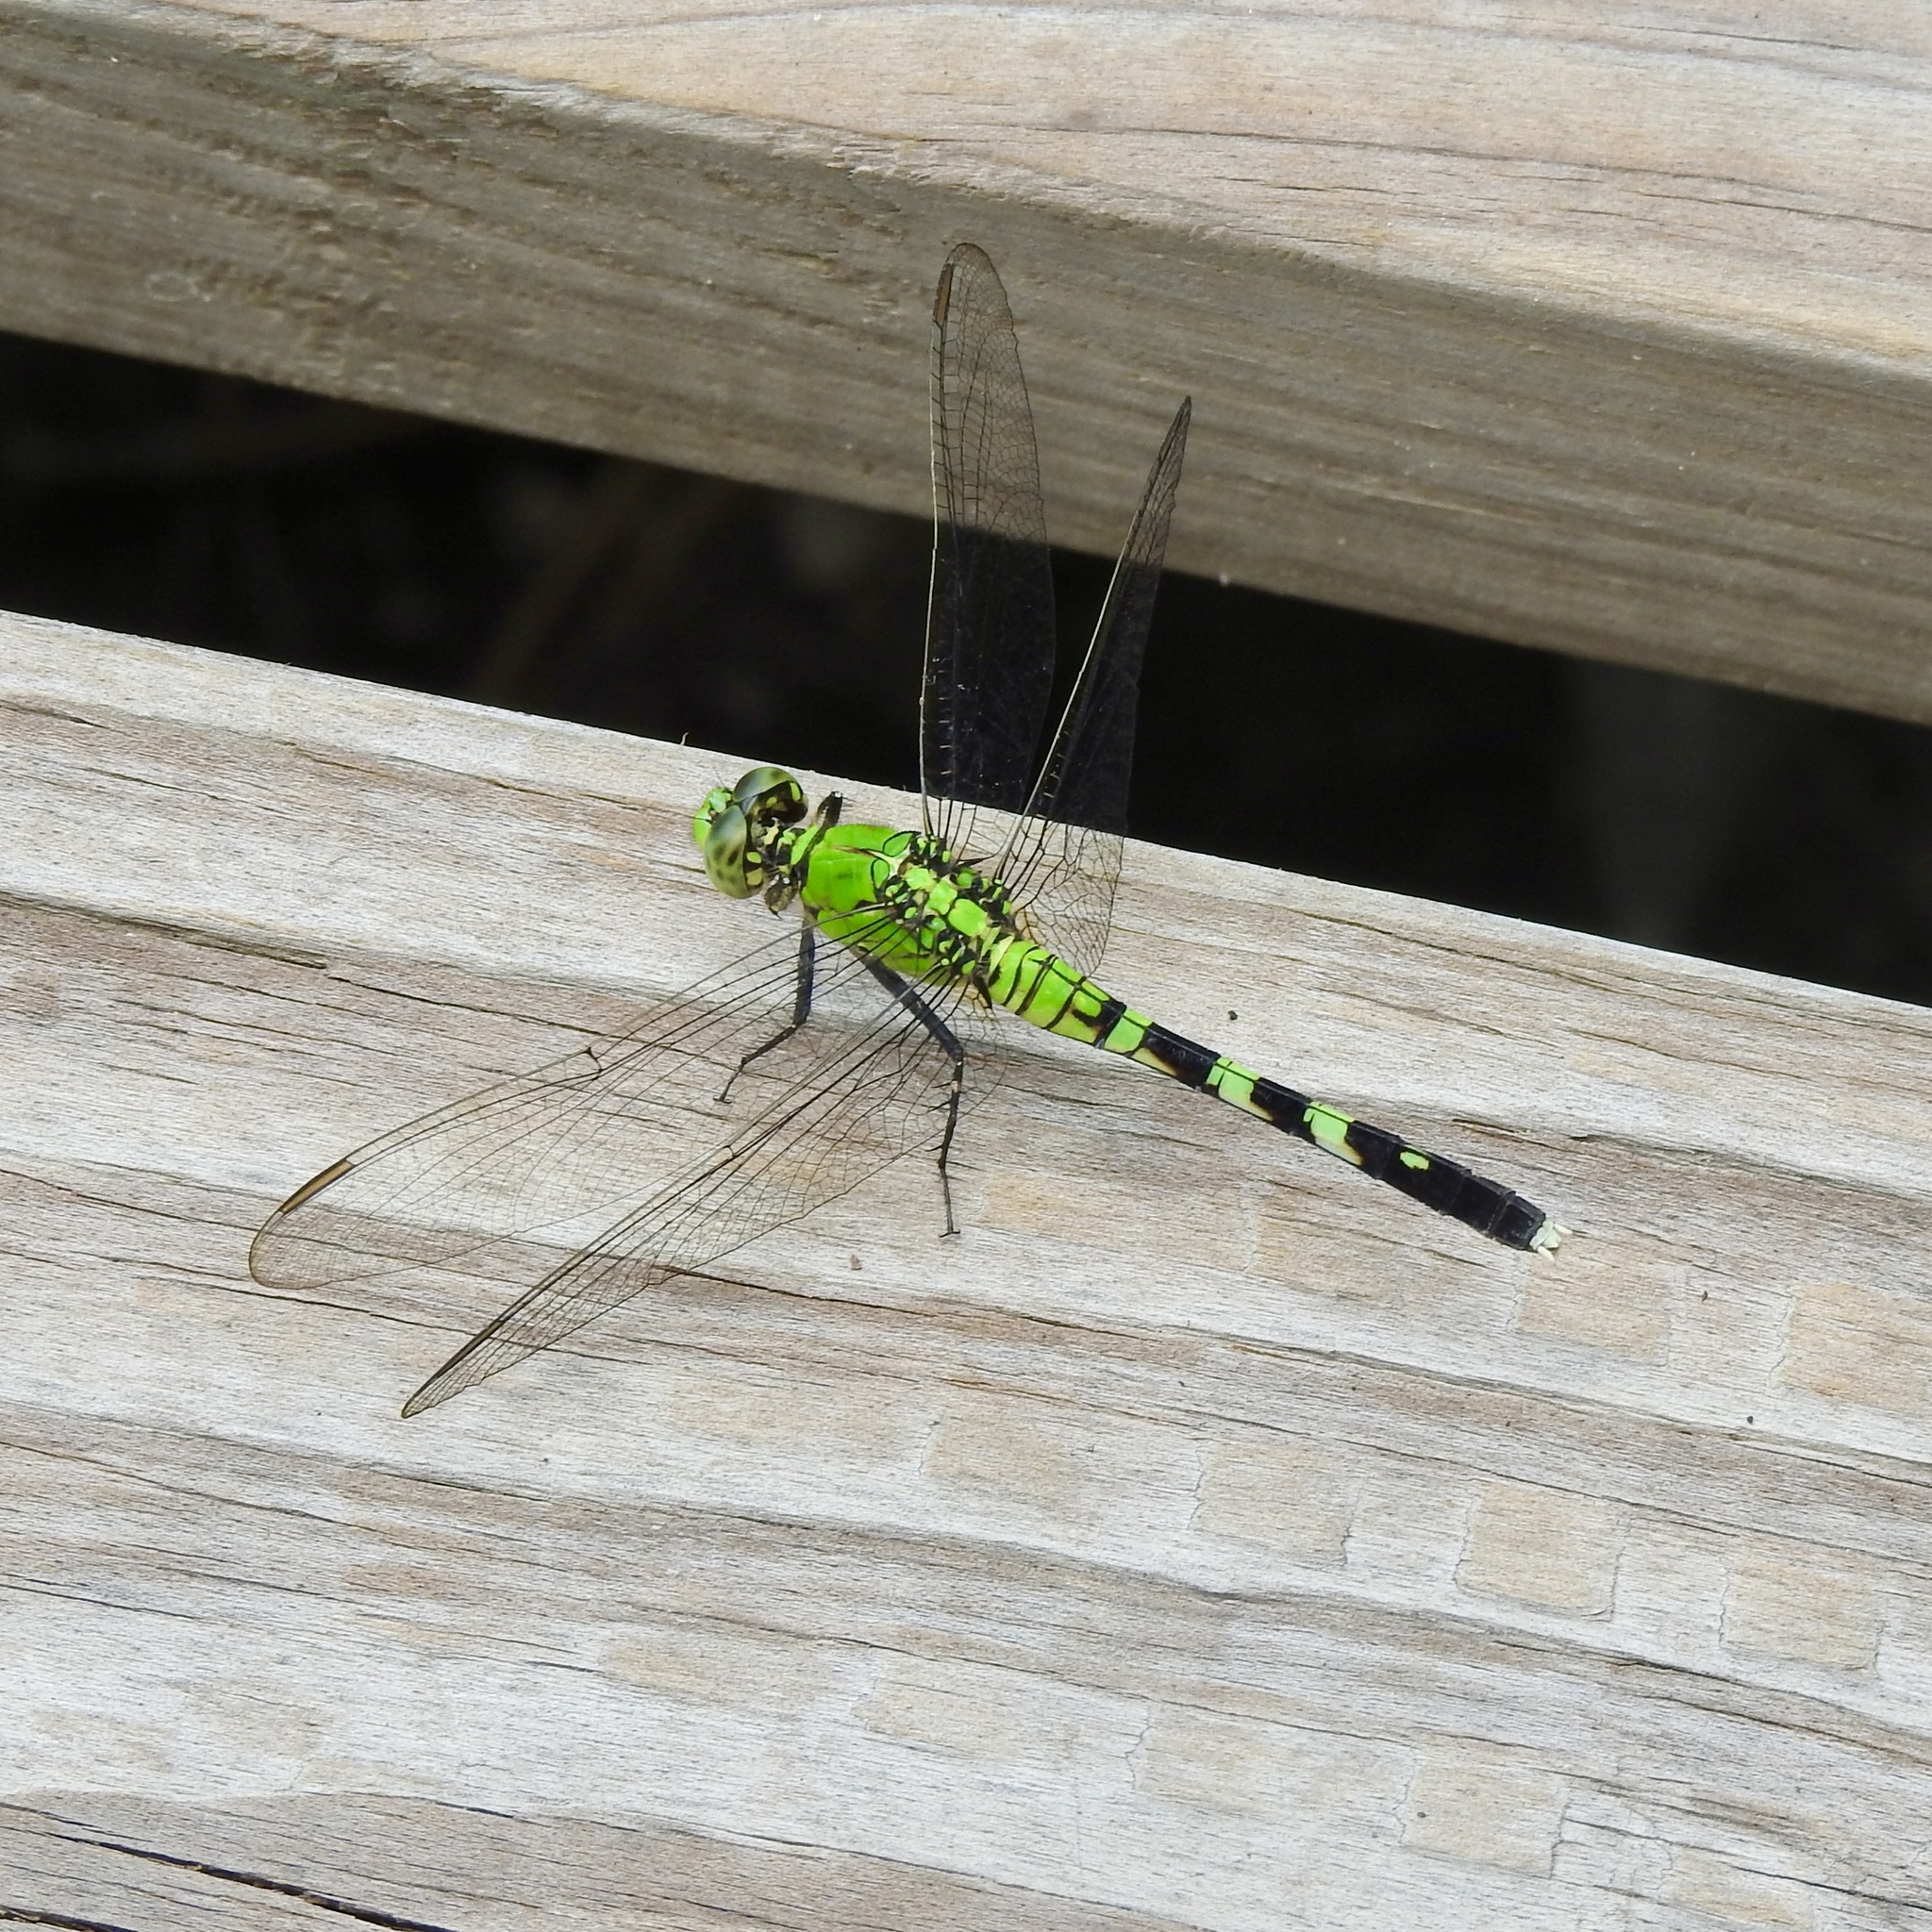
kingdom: Animalia
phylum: Arthropoda
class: Insecta
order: Odonata
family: Libellulidae
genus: Erythemis
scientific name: Erythemis simplicicollis
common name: Eastern pondhawk
